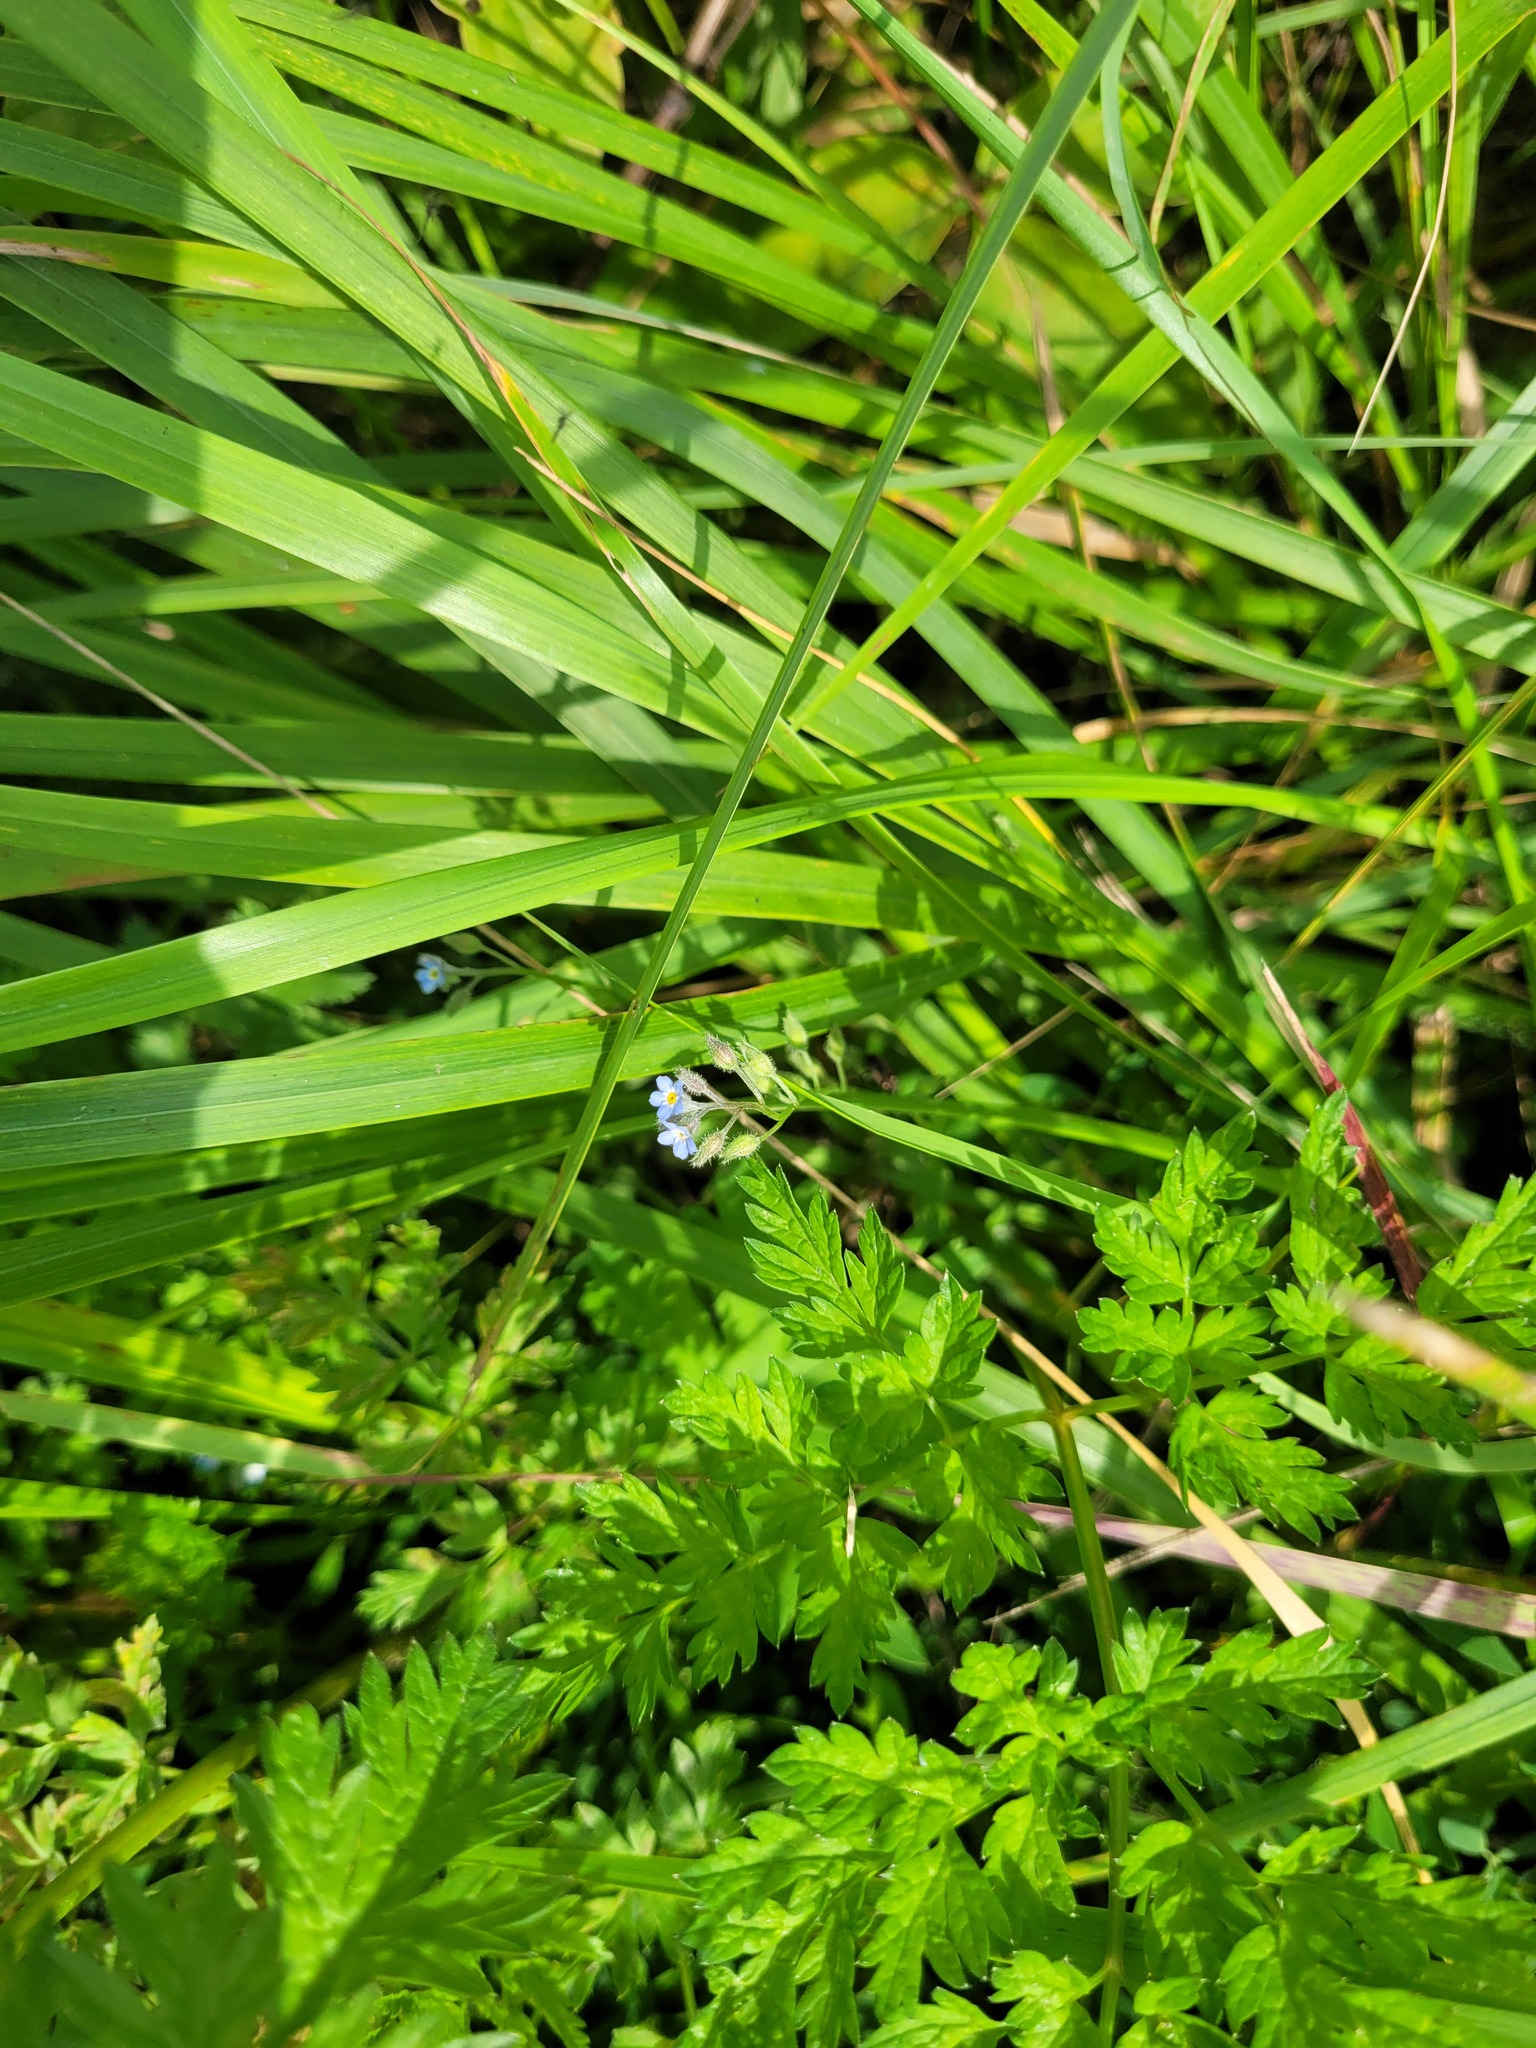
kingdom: Plantae
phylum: Tracheophyta
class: Magnoliopsida
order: Boraginales
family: Boraginaceae
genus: Myosotis
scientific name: Myosotis arvensis
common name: Field forget-me-not
